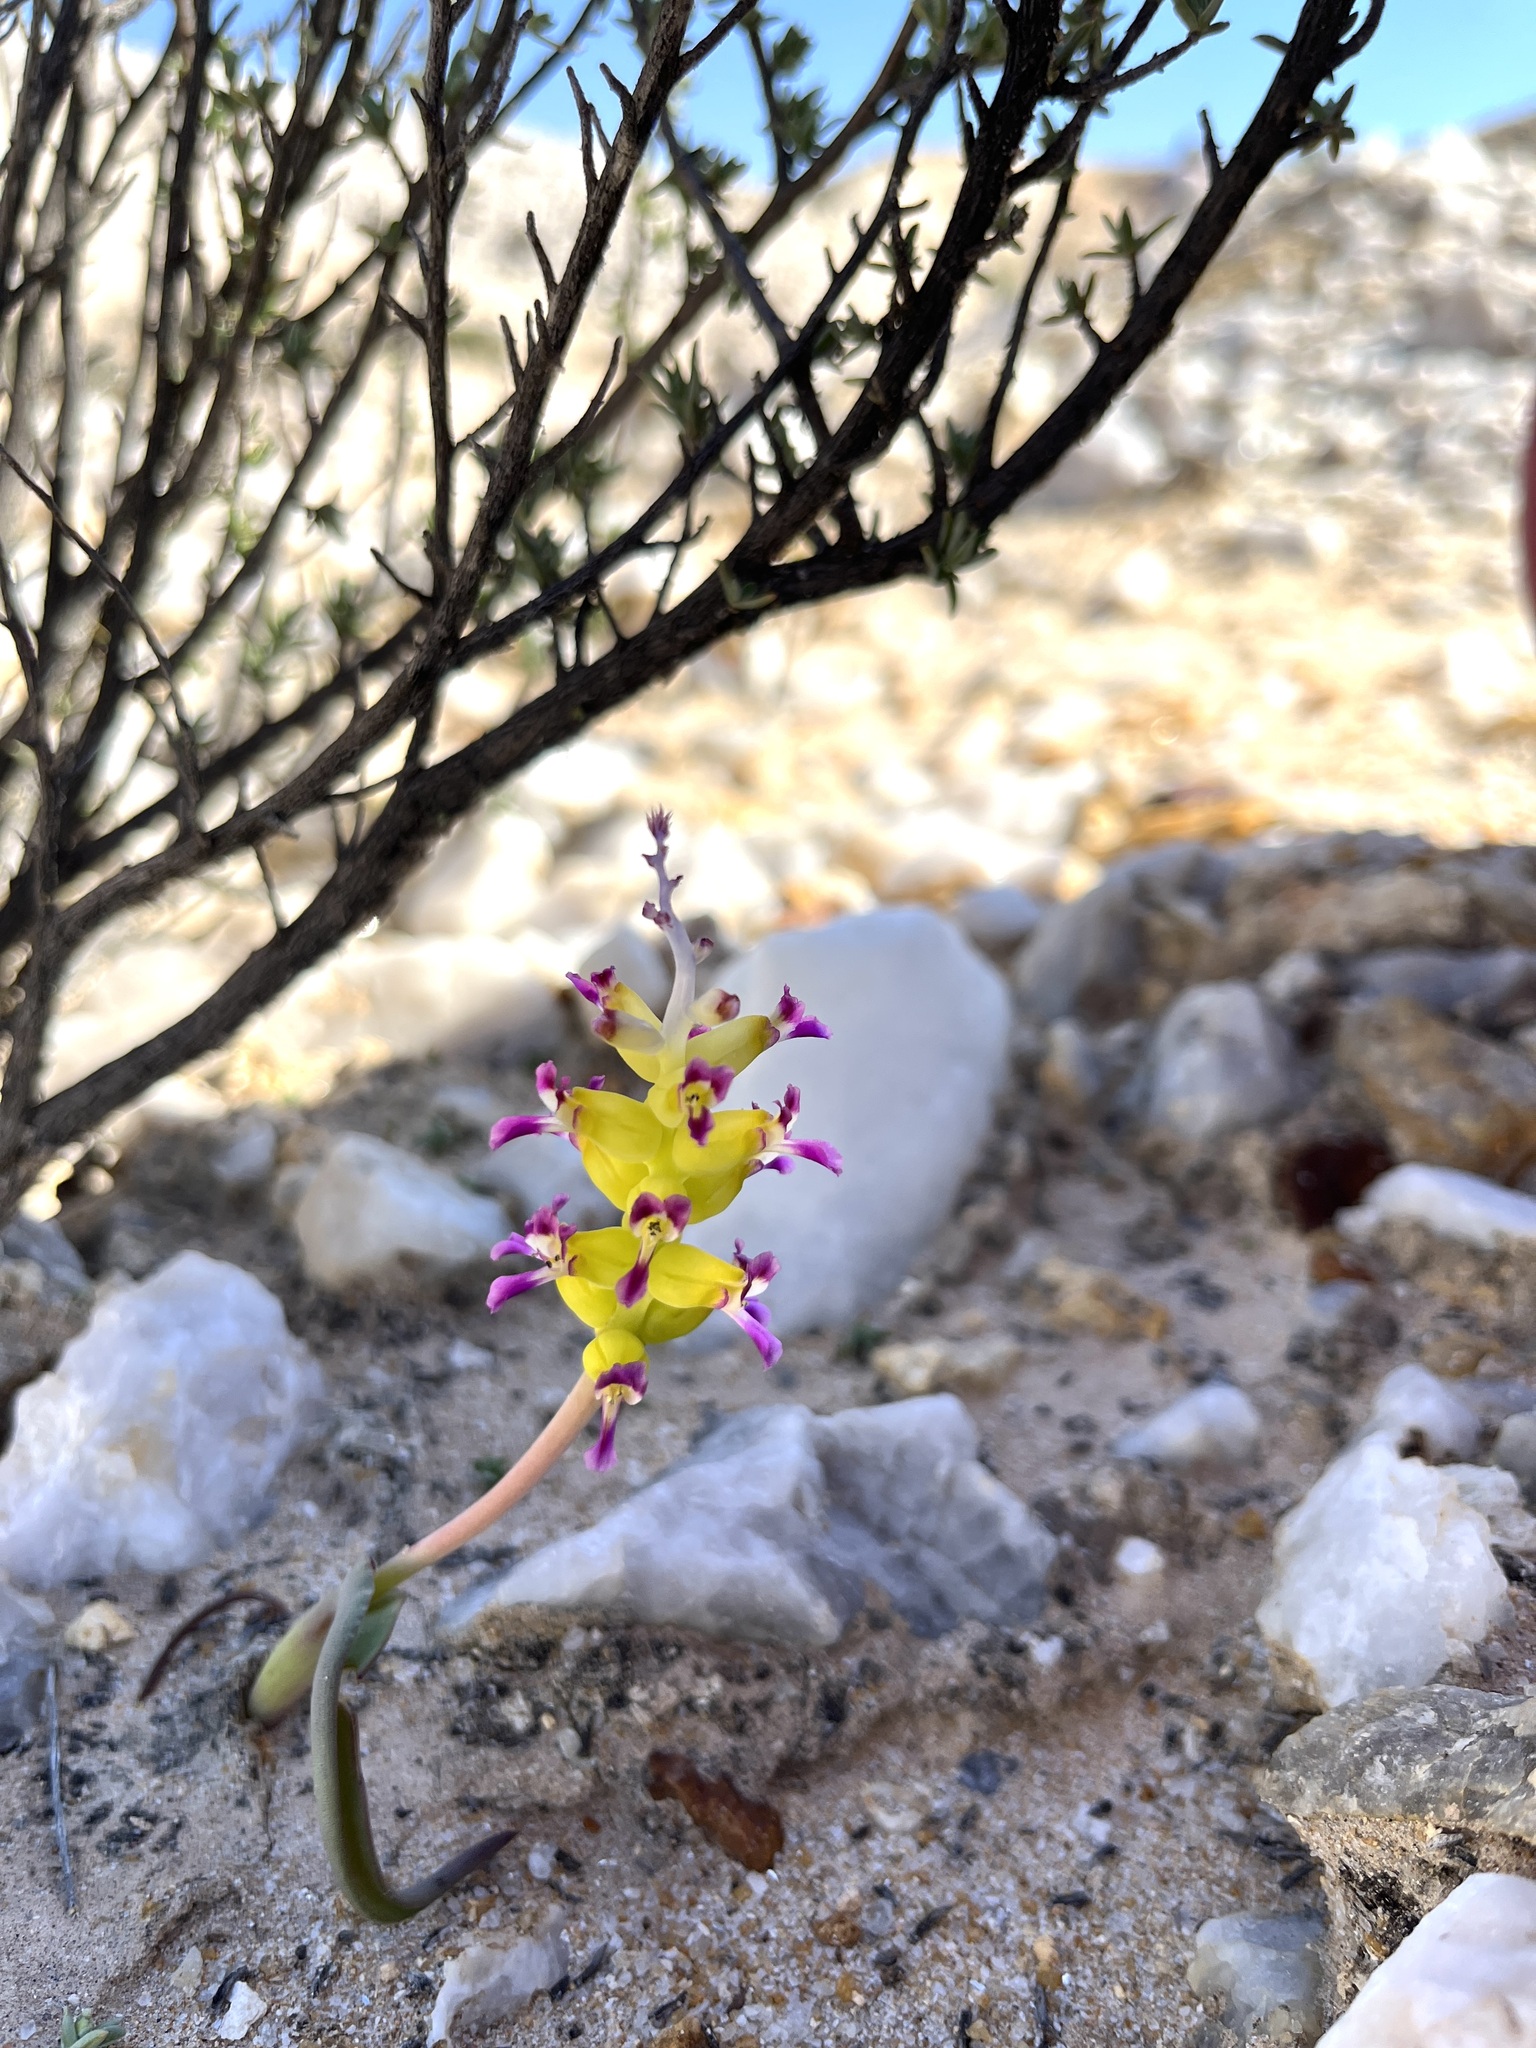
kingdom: Plantae
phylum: Tracheophyta
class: Liliopsida
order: Asparagales
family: Asparagaceae
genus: Lachenalia
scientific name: Lachenalia framesii
